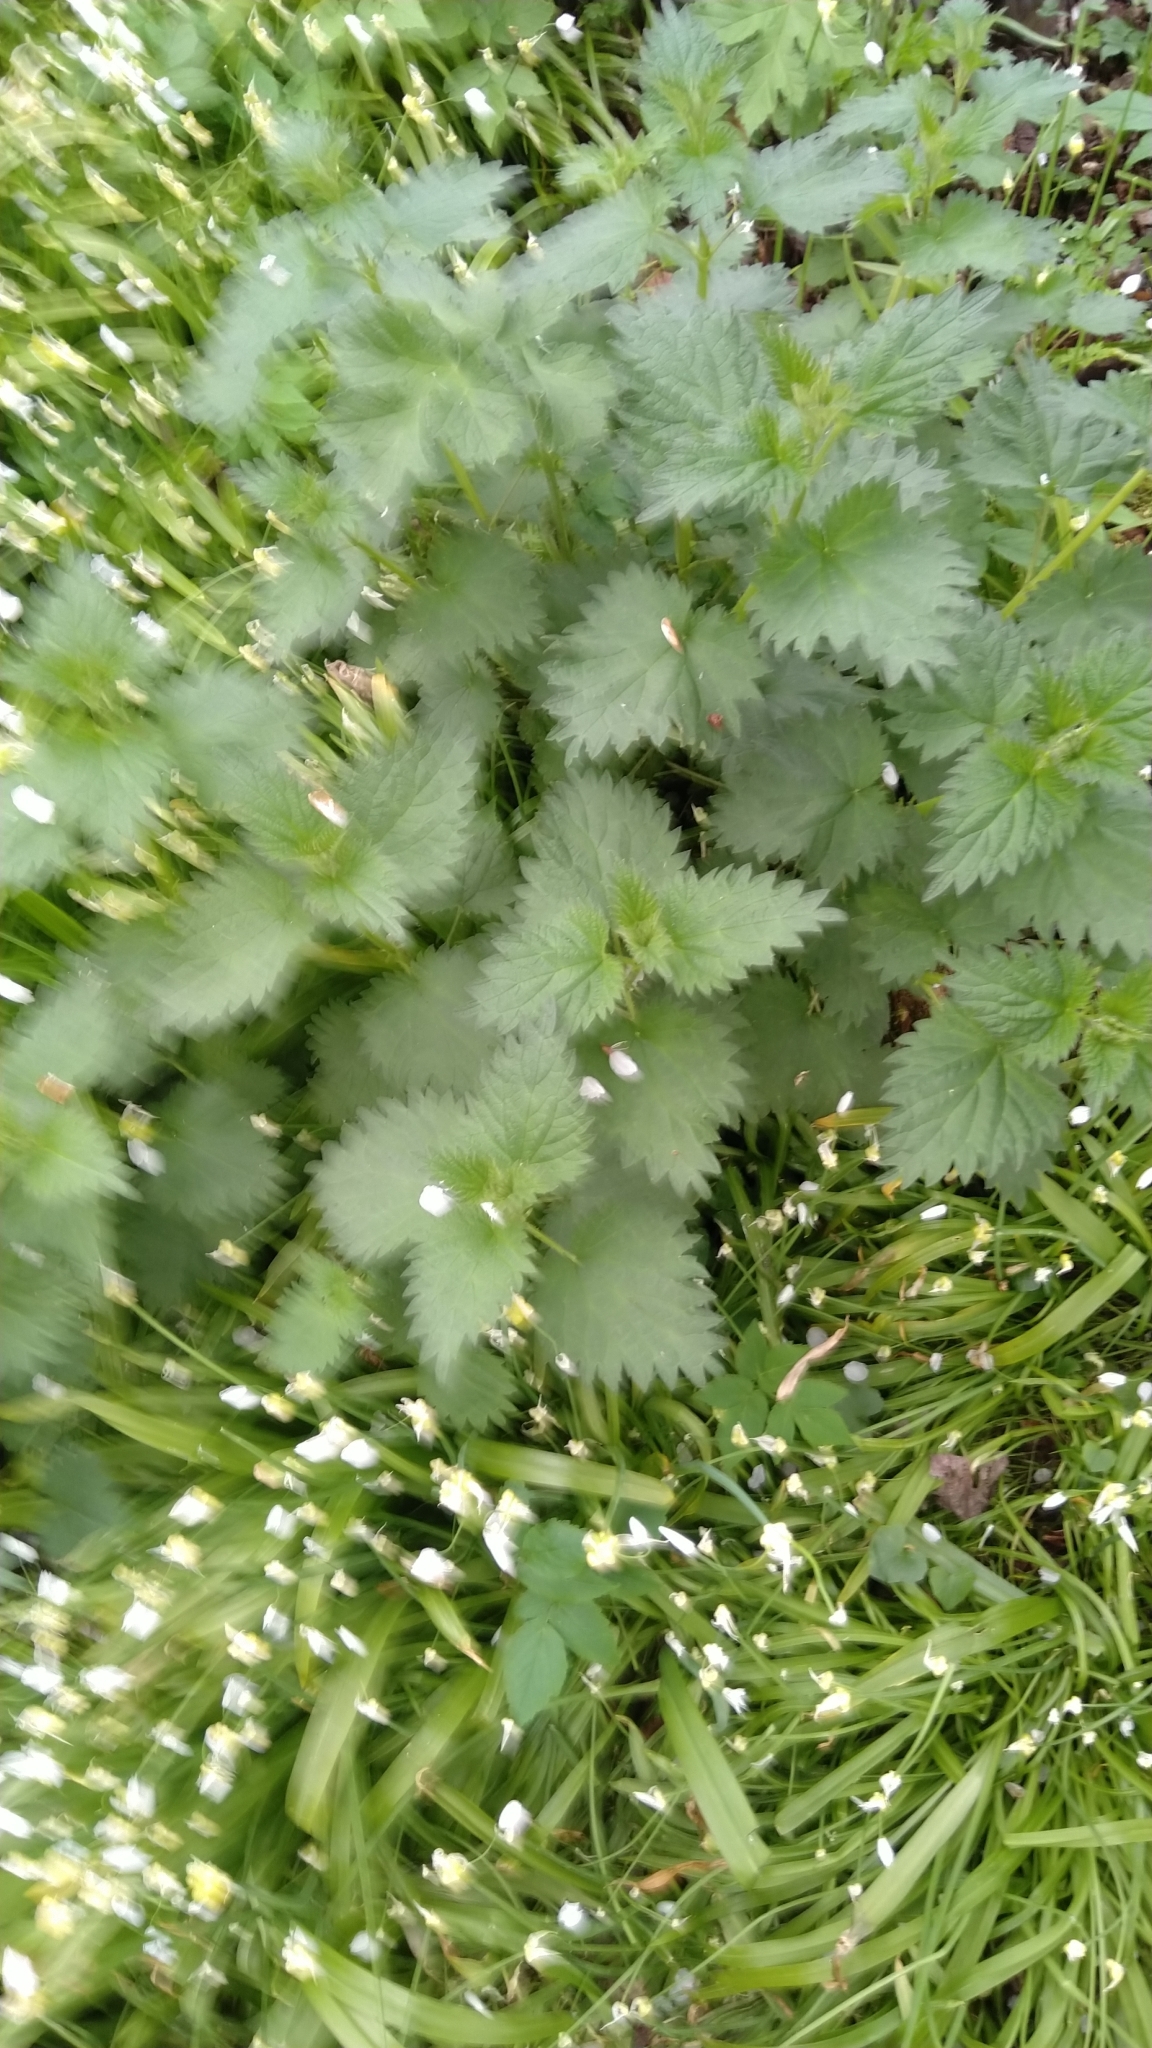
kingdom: Plantae
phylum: Tracheophyta
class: Magnoliopsida
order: Rosales
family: Urticaceae
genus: Urtica
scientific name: Urtica dioica
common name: Common nettle
